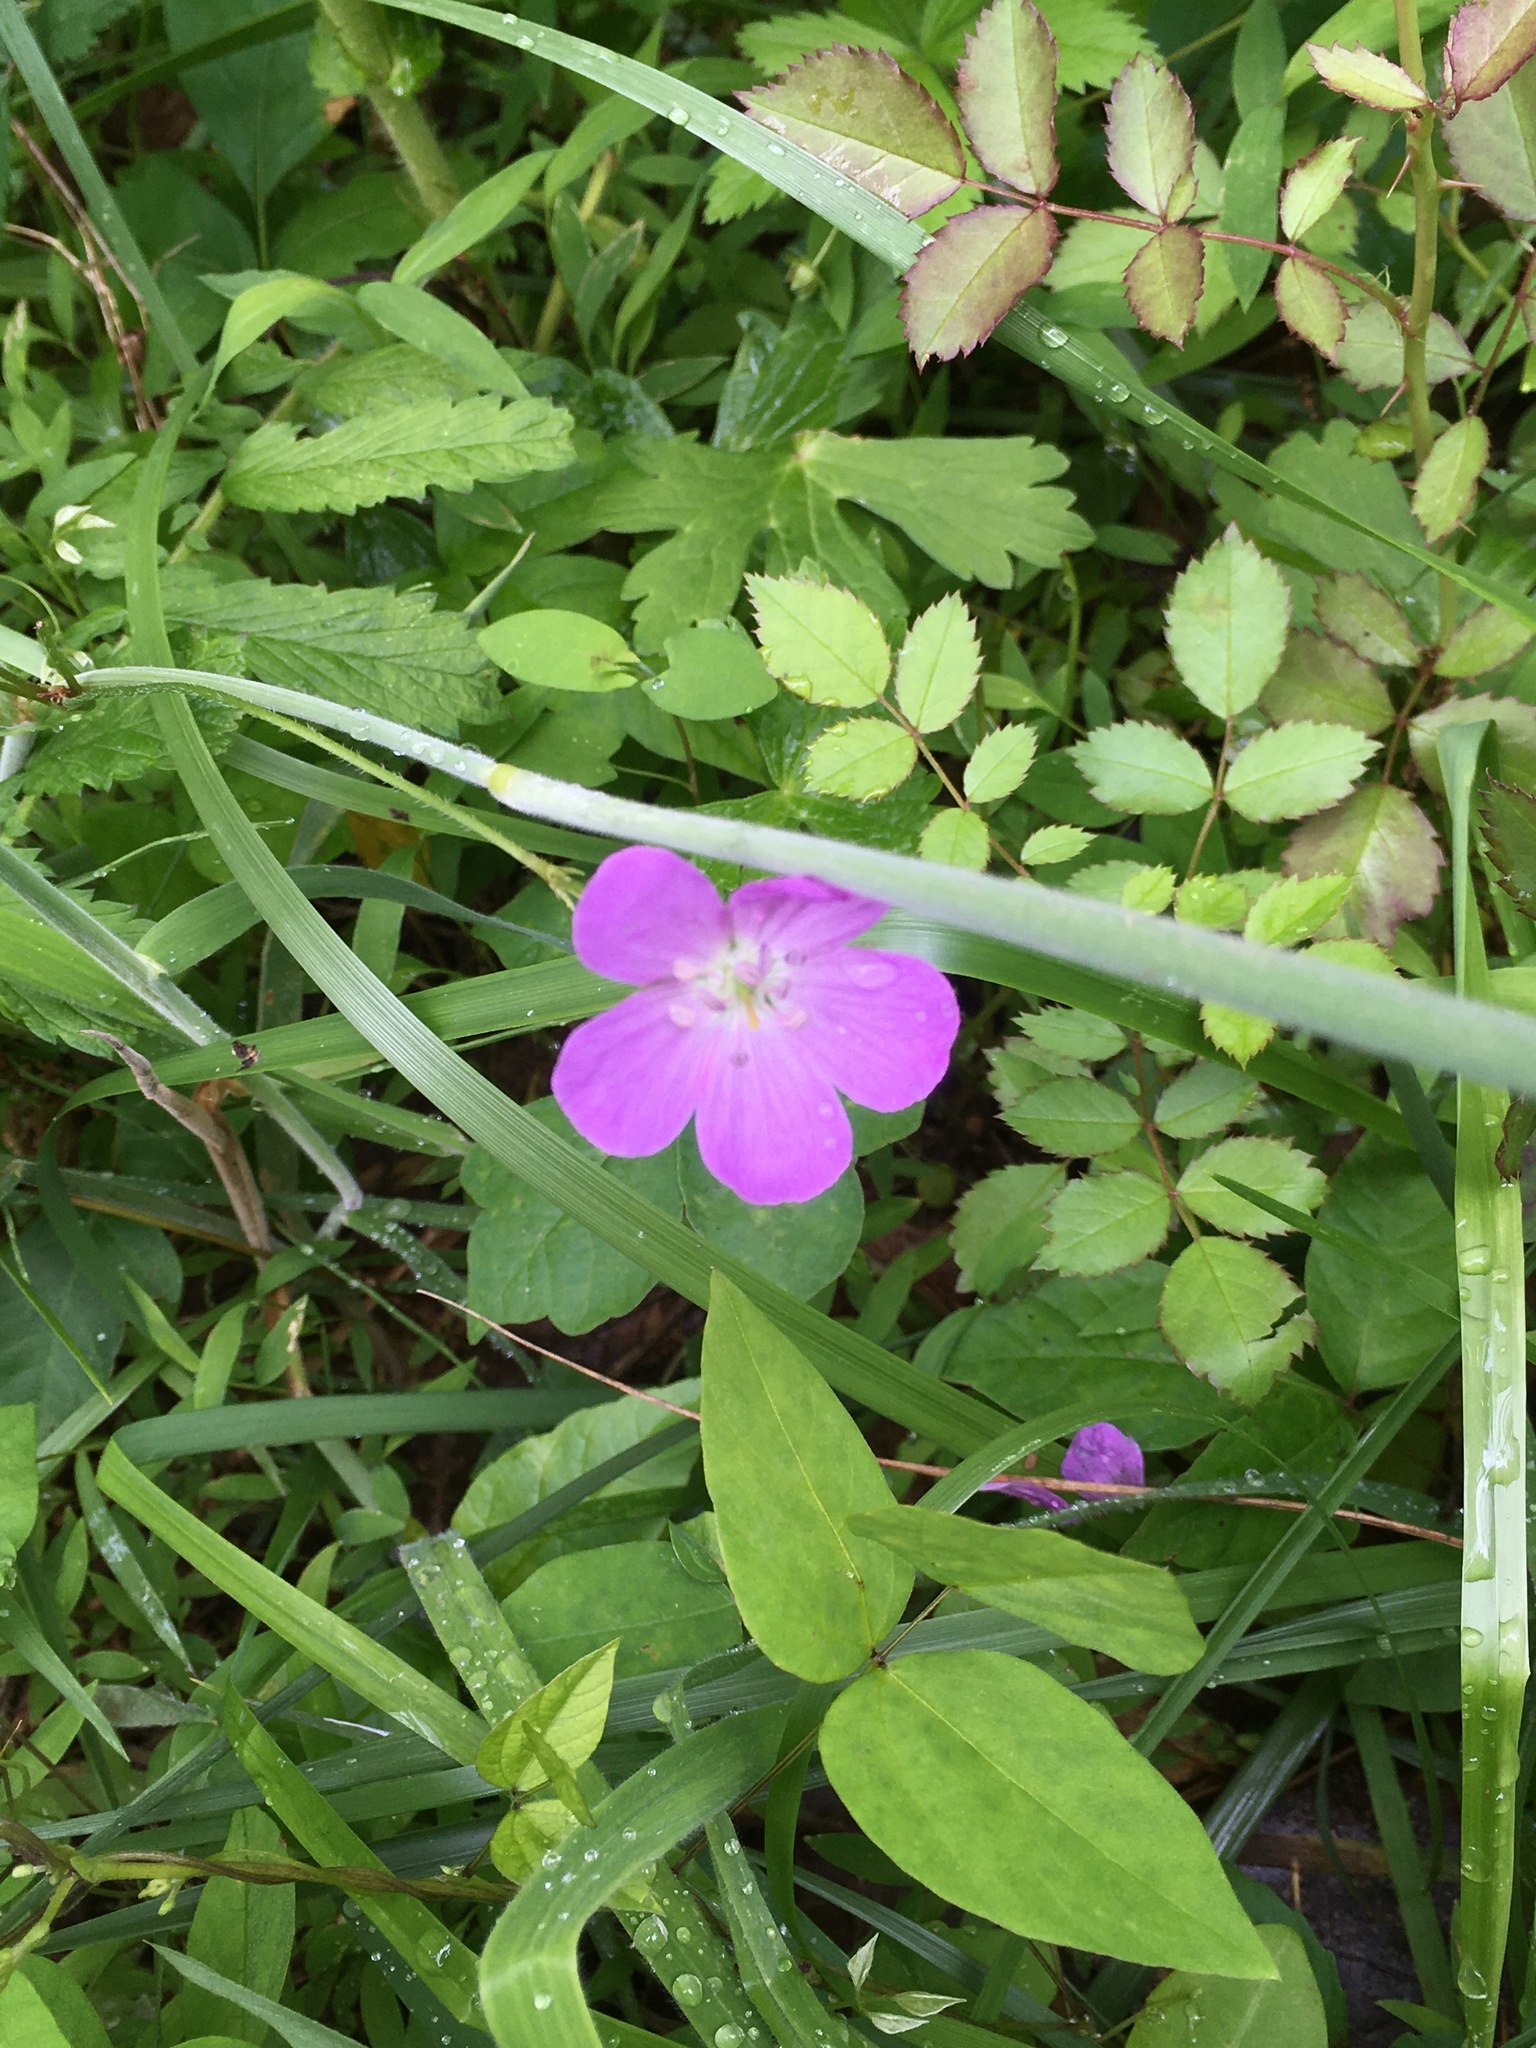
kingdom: Plantae
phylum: Tracheophyta
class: Magnoliopsida
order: Geraniales
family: Geraniaceae
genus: Geranium
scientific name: Geranium maculatum
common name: Spotted geranium
